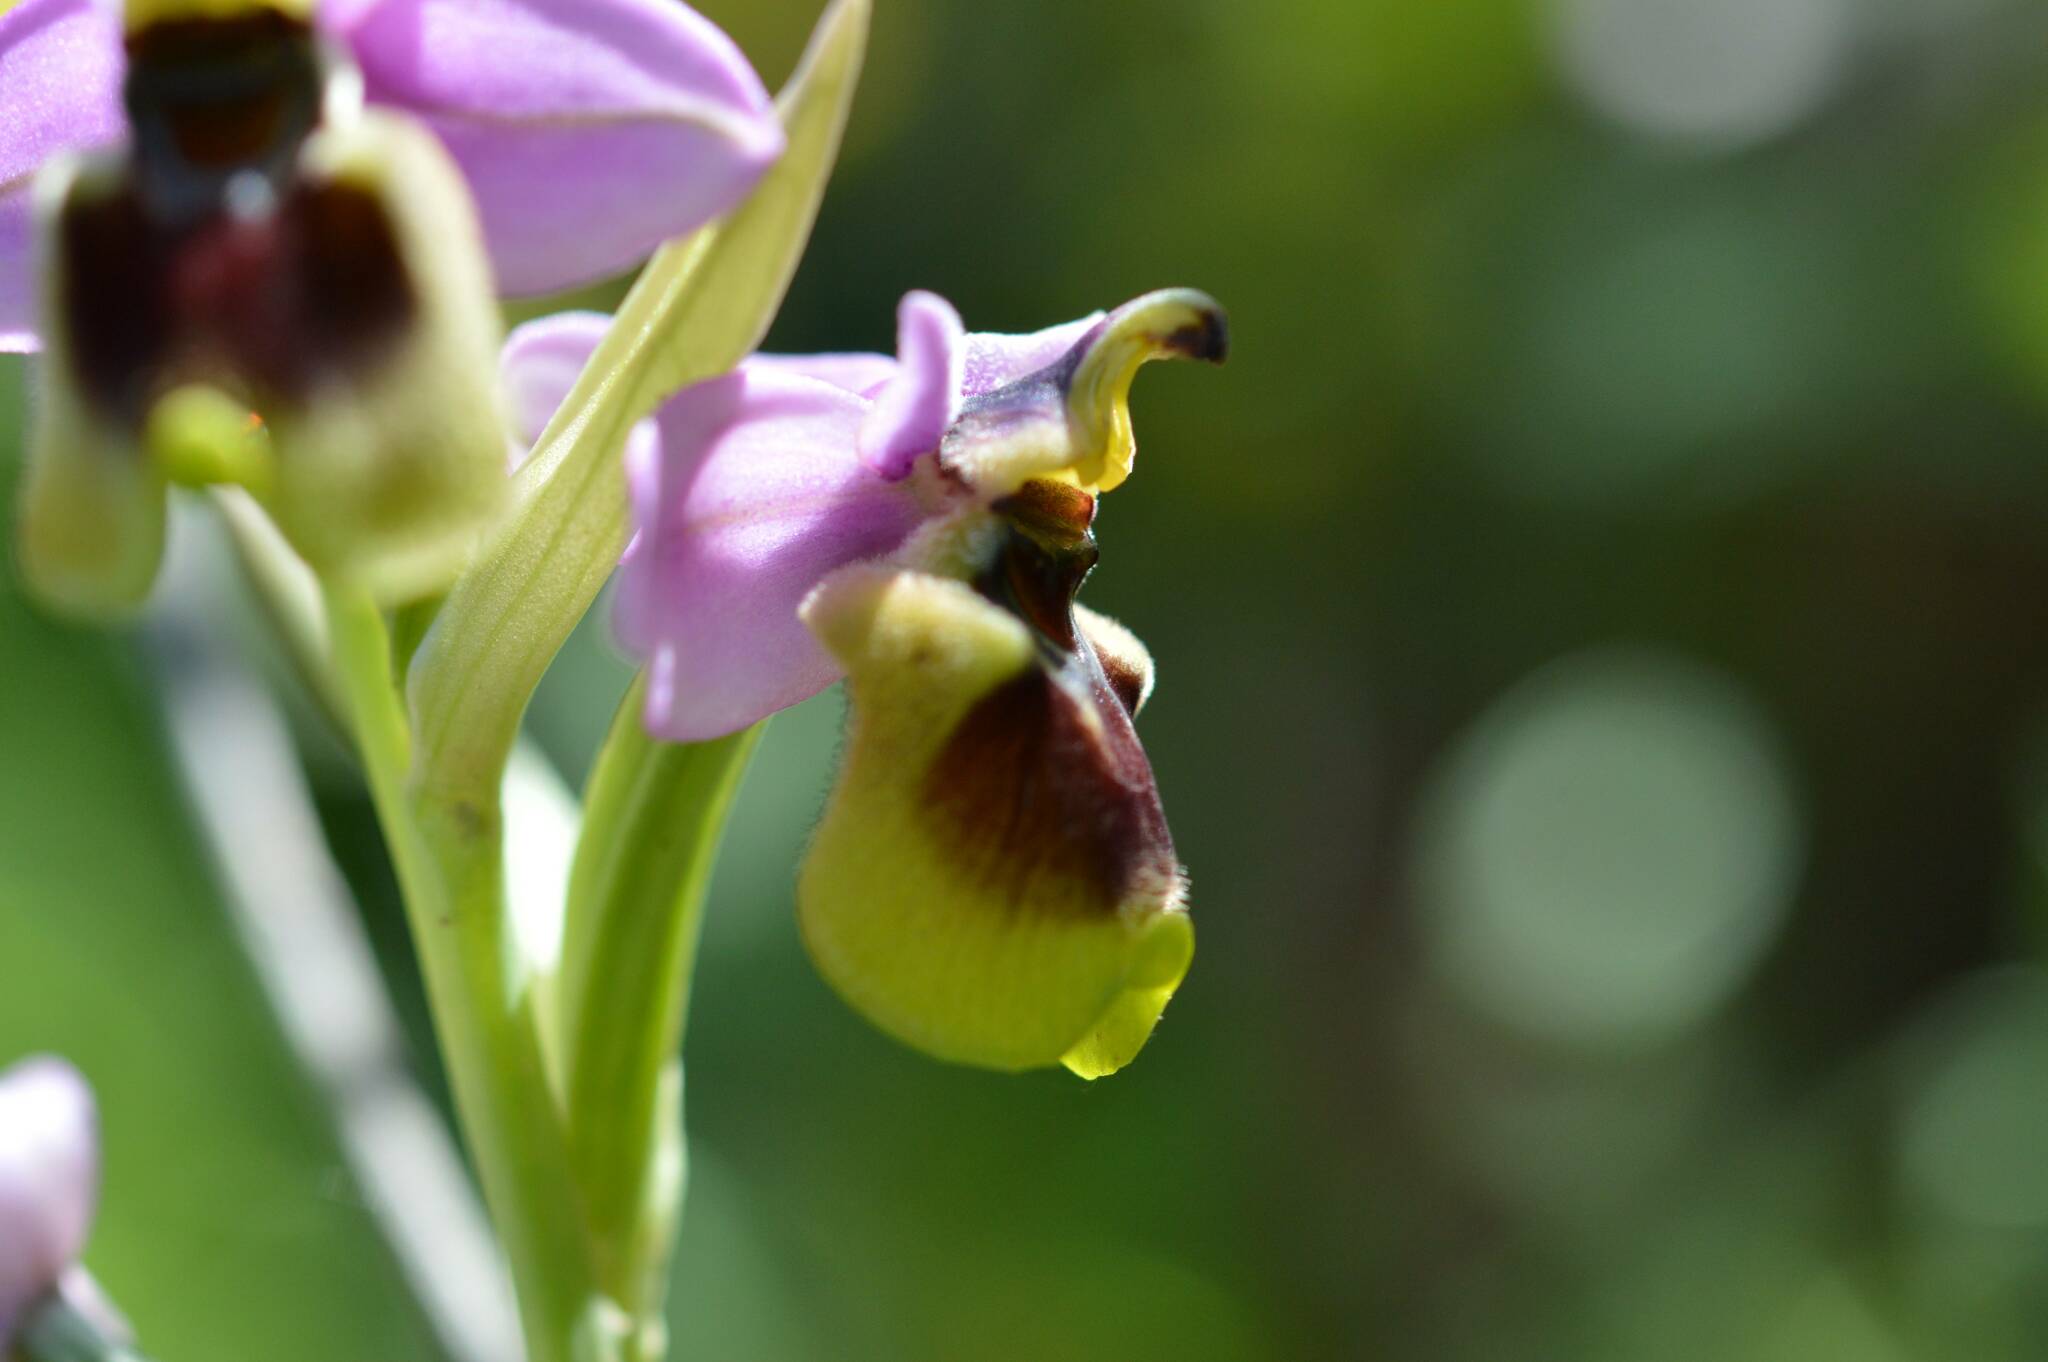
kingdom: Plantae
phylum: Tracheophyta
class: Liliopsida
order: Asparagales
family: Orchidaceae
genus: Ophrys
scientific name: Ophrys tenthredinifera
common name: Sawfly orchid
